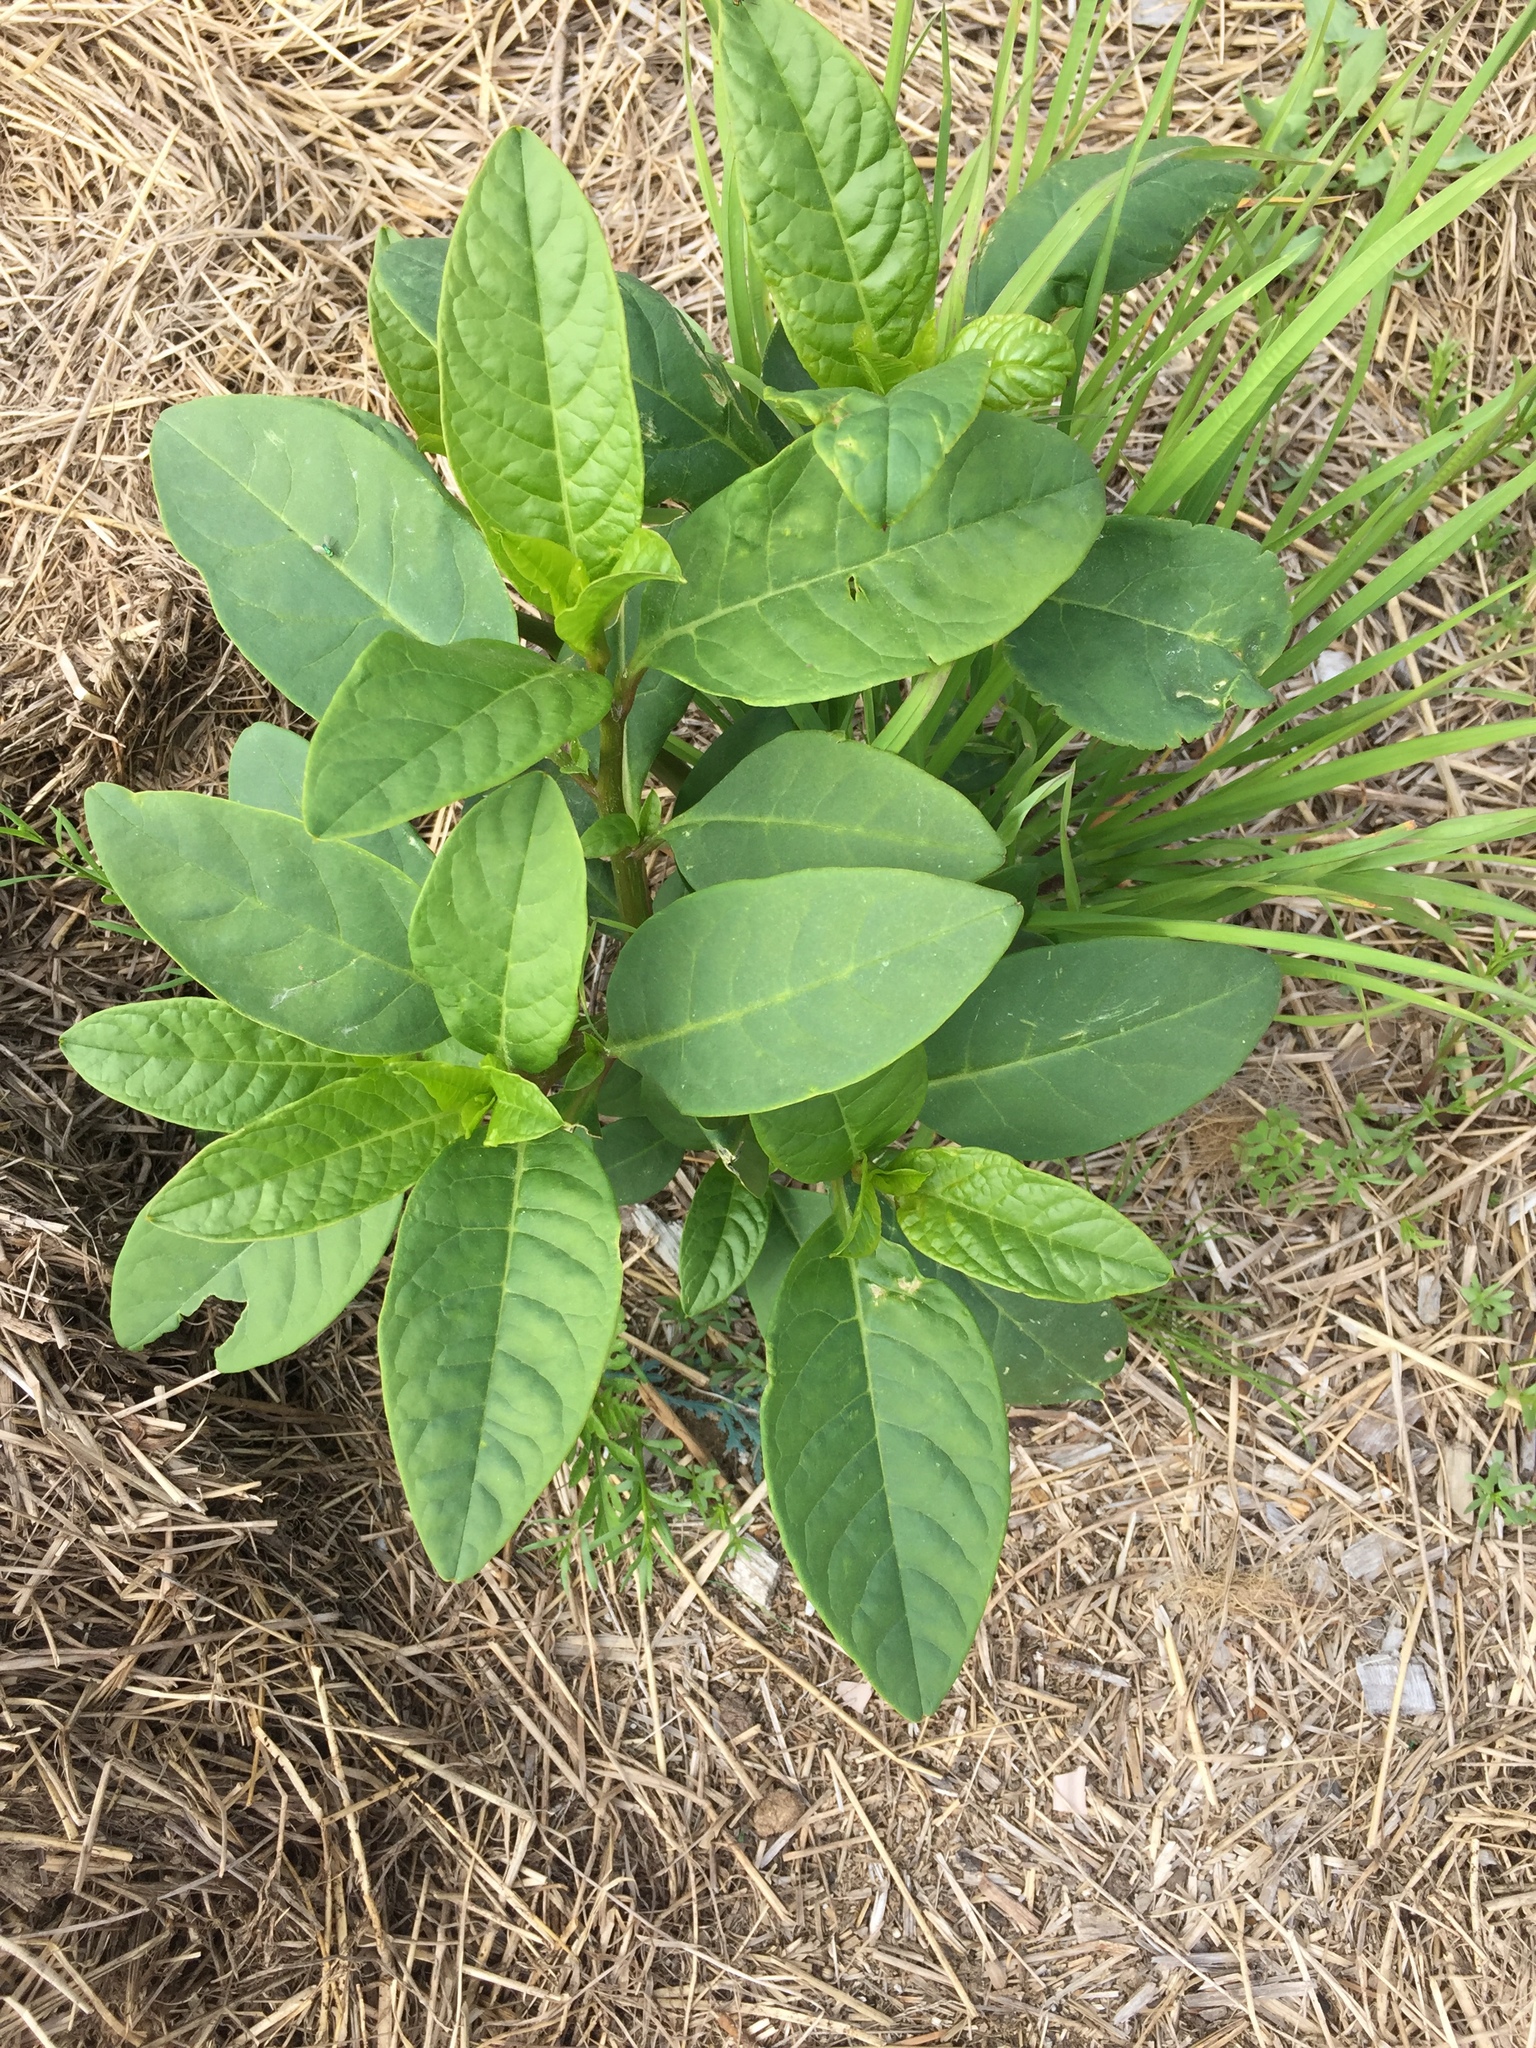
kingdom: Plantae
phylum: Tracheophyta
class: Magnoliopsida
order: Caryophyllales
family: Phytolaccaceae
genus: Phytolacca
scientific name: Phytolacca americana
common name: American pokeweed
